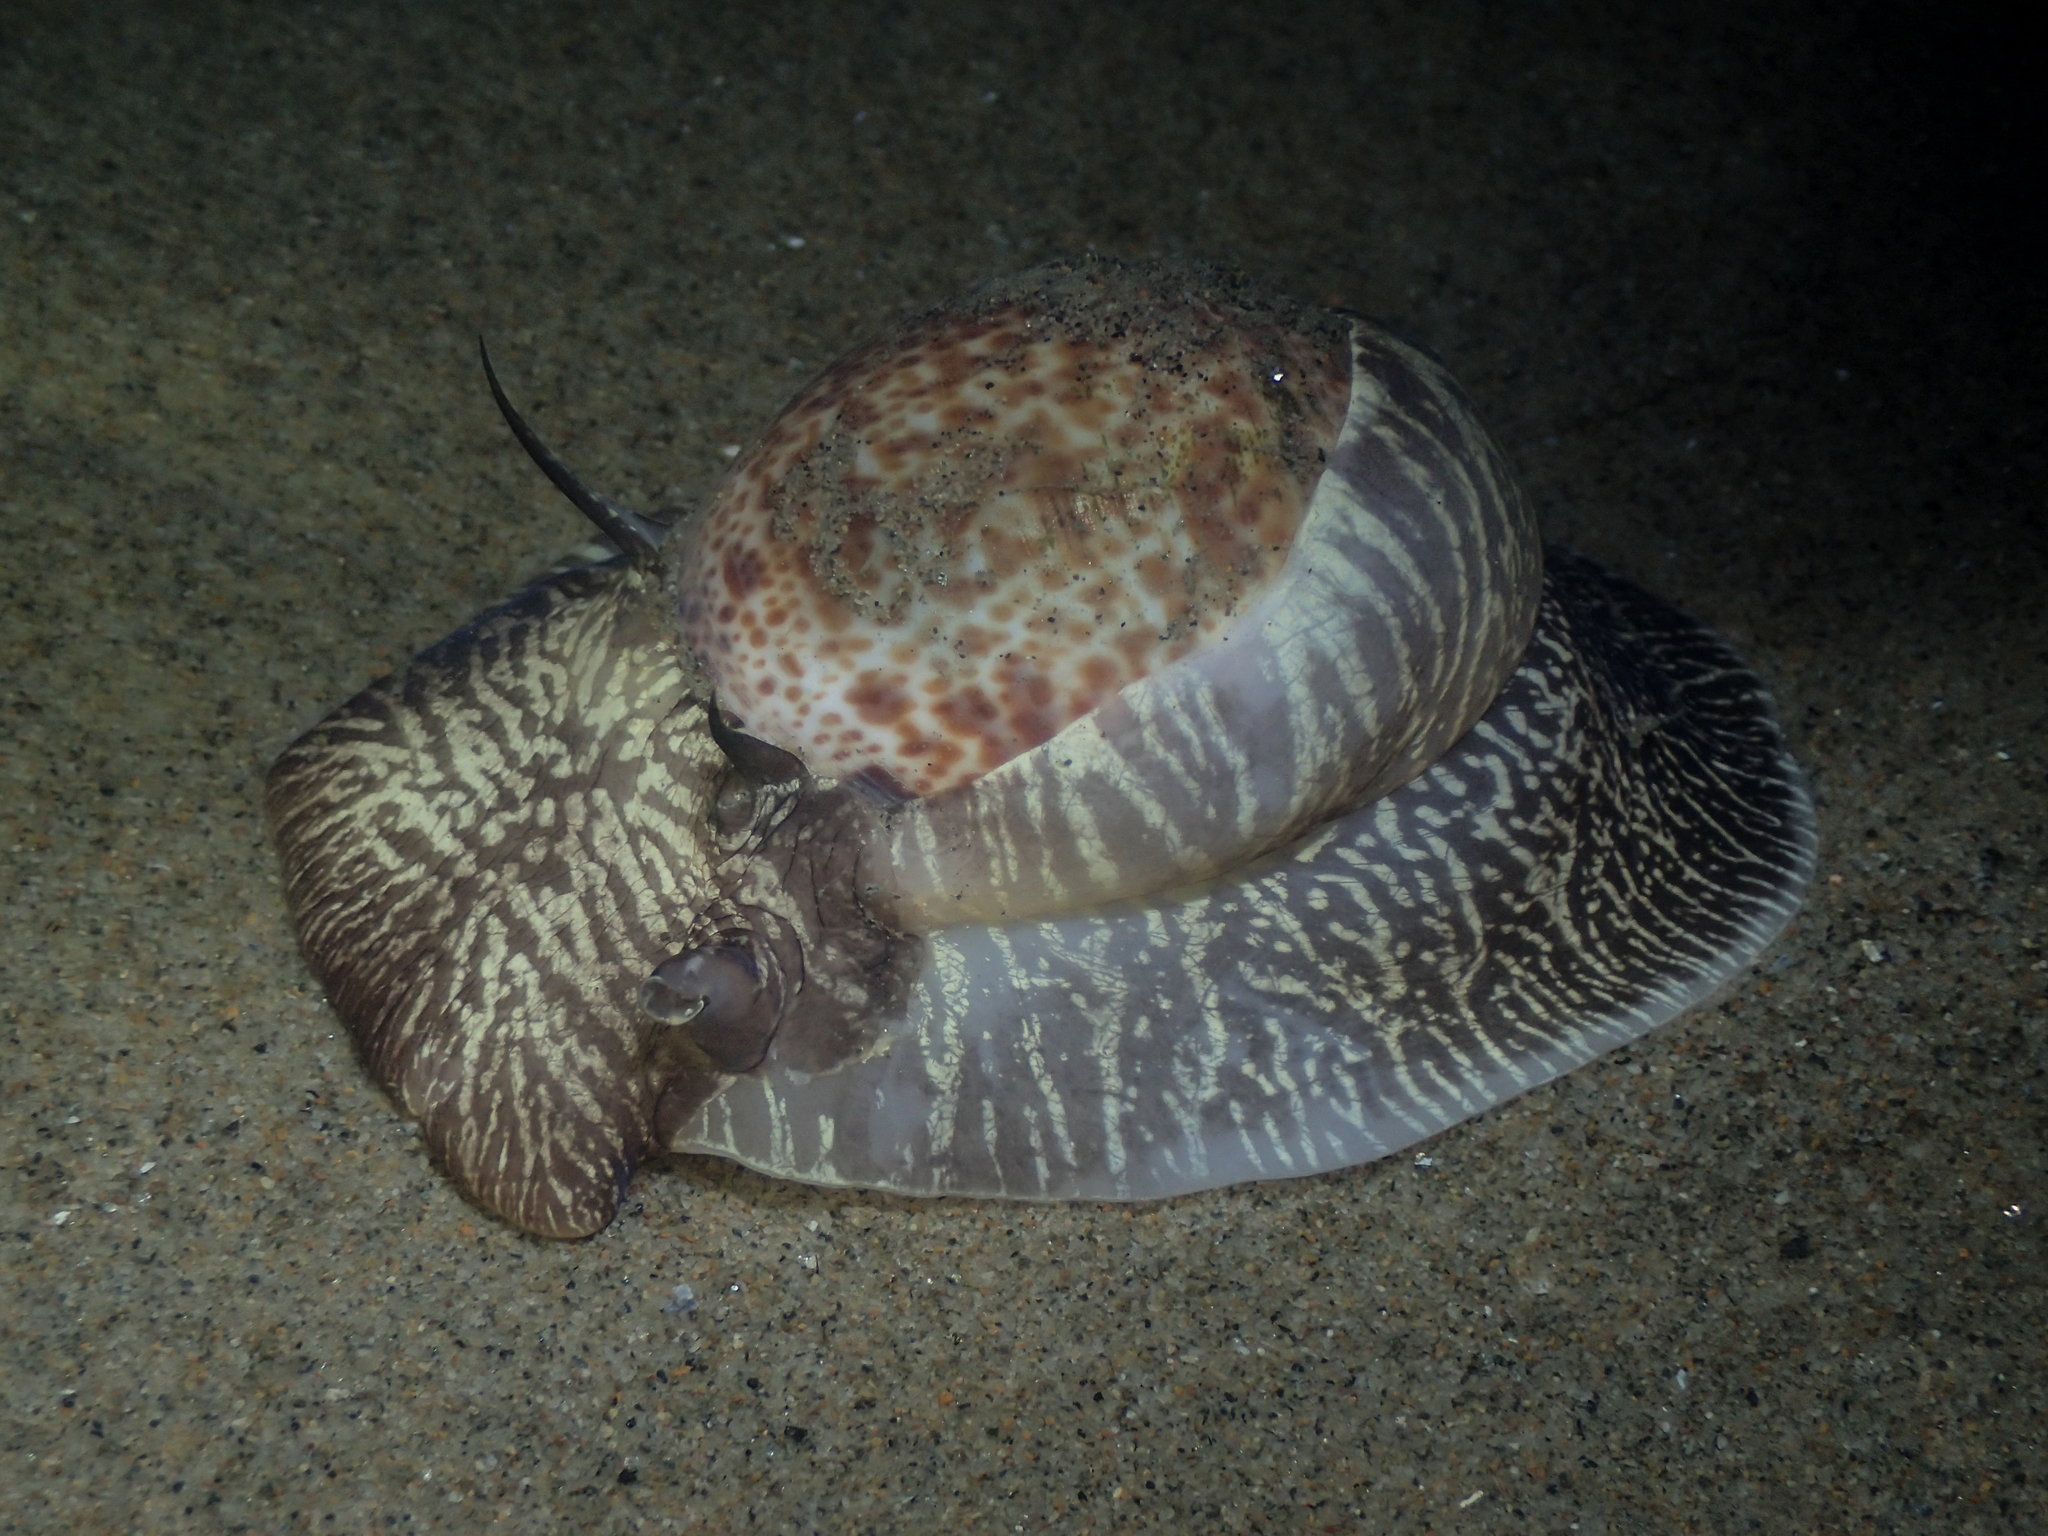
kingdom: Animalia
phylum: Mollusca
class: Gastropoda
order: Littorinimorpha
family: Naticidae
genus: Naticarius
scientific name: Naticarius hebraeus
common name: Hebrew moon shell
